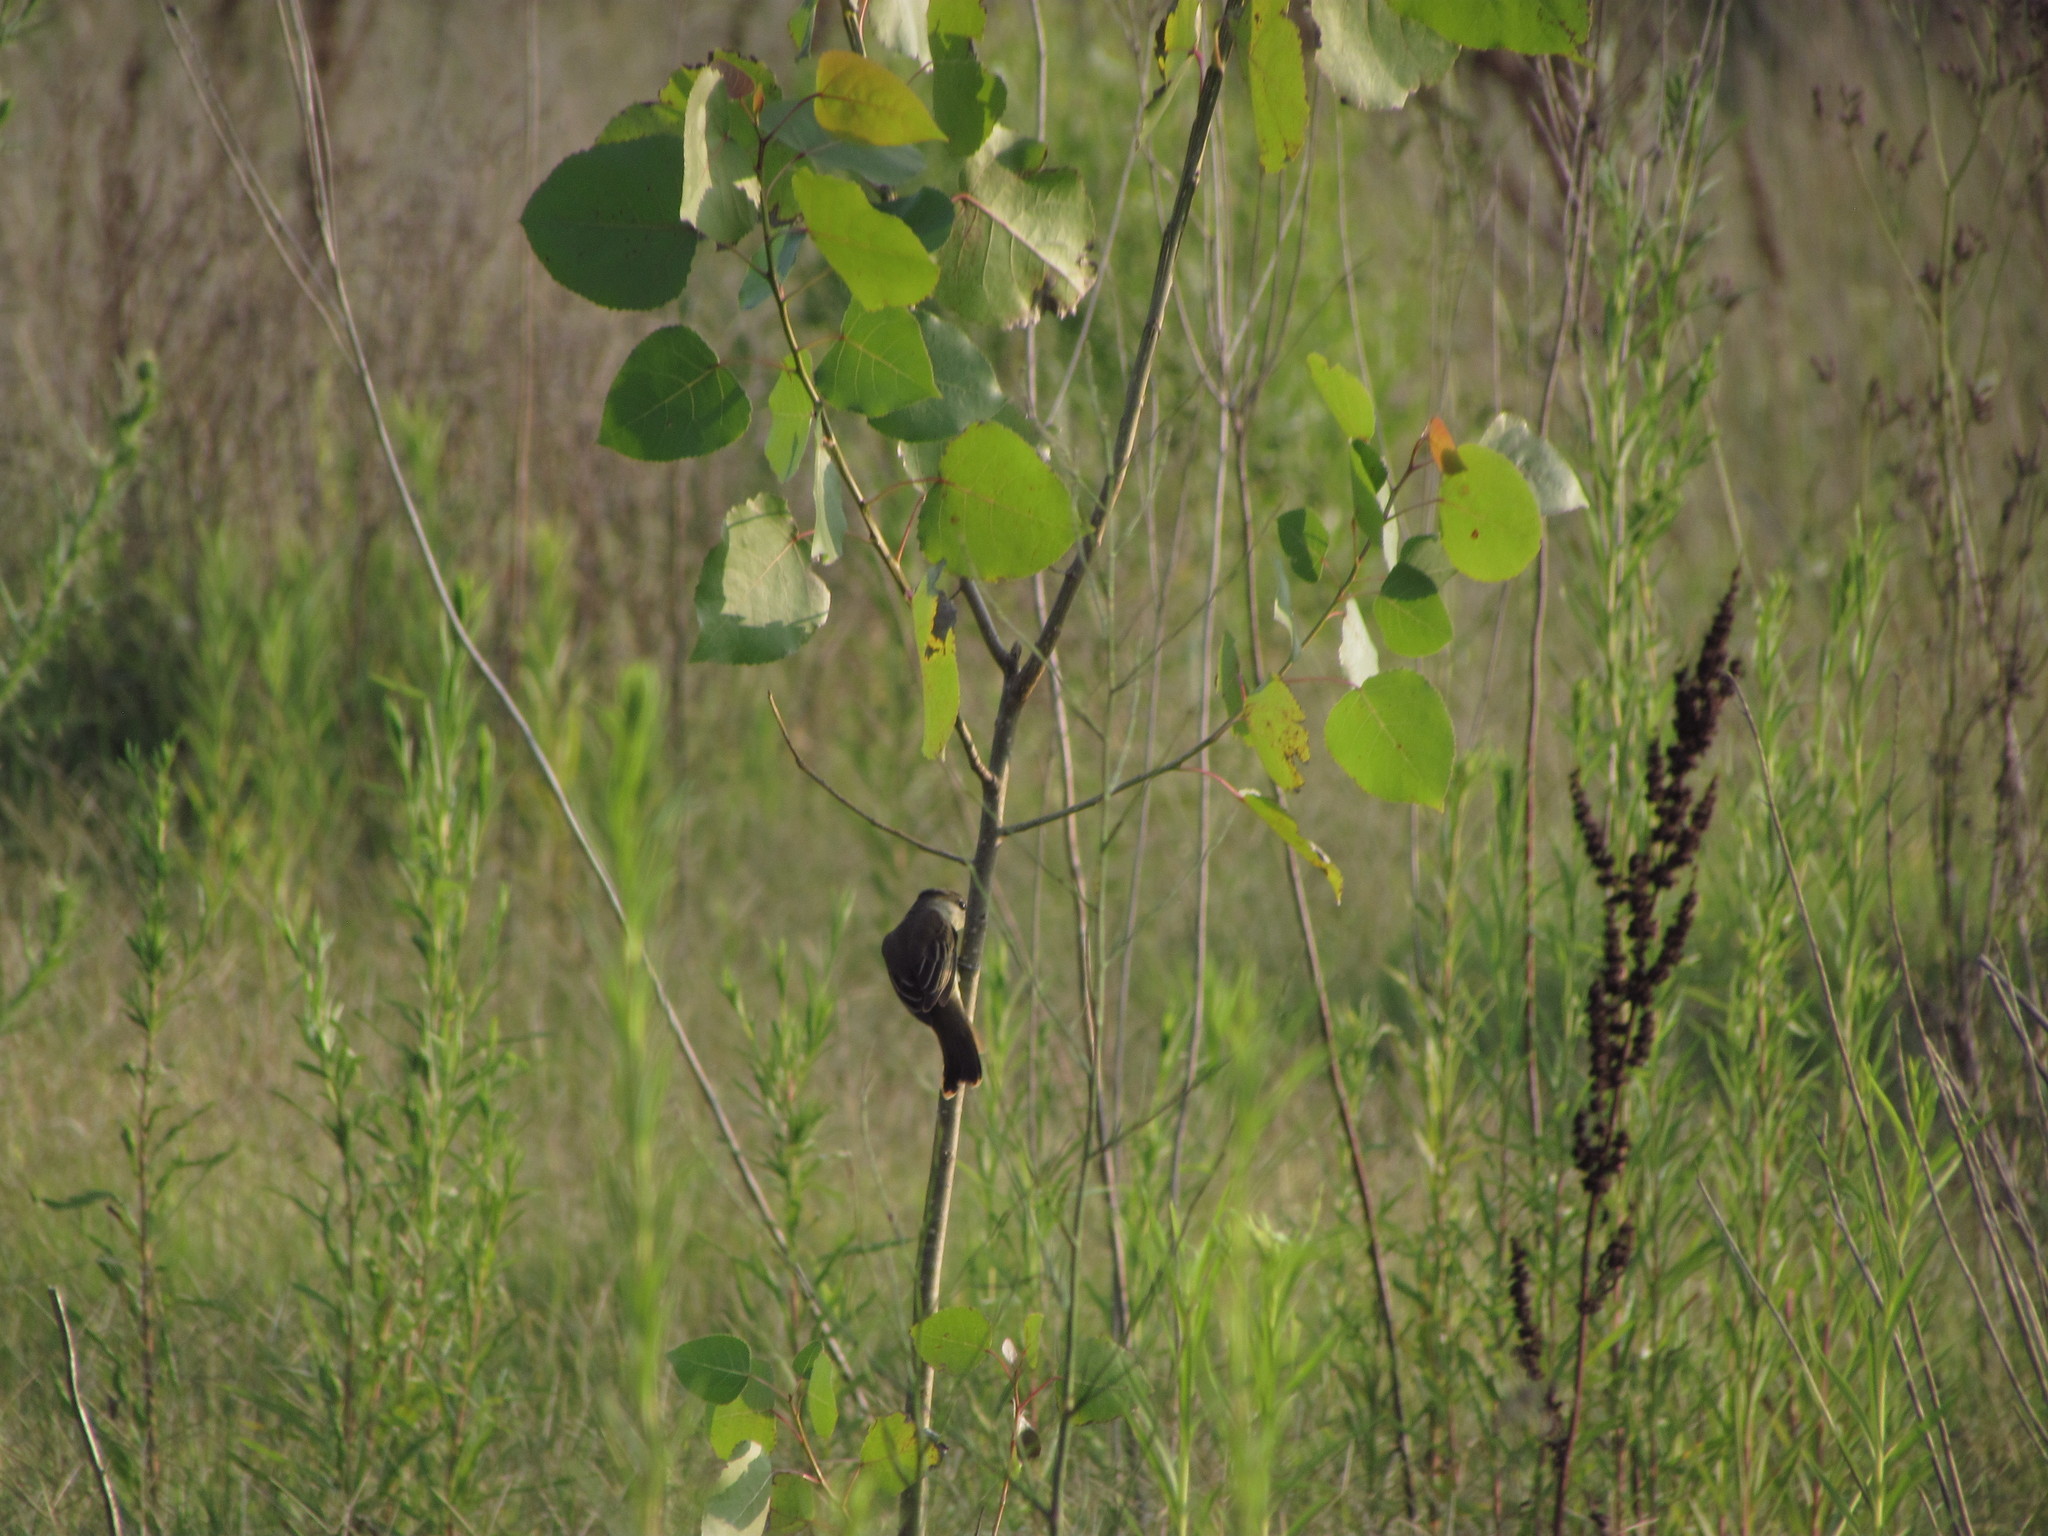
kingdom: Animalia
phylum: Chordata
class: Aves
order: Passeriformes
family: Cotingidae
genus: Pachyramphus
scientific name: Pachyramphus polychopterus
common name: White-winged becard
